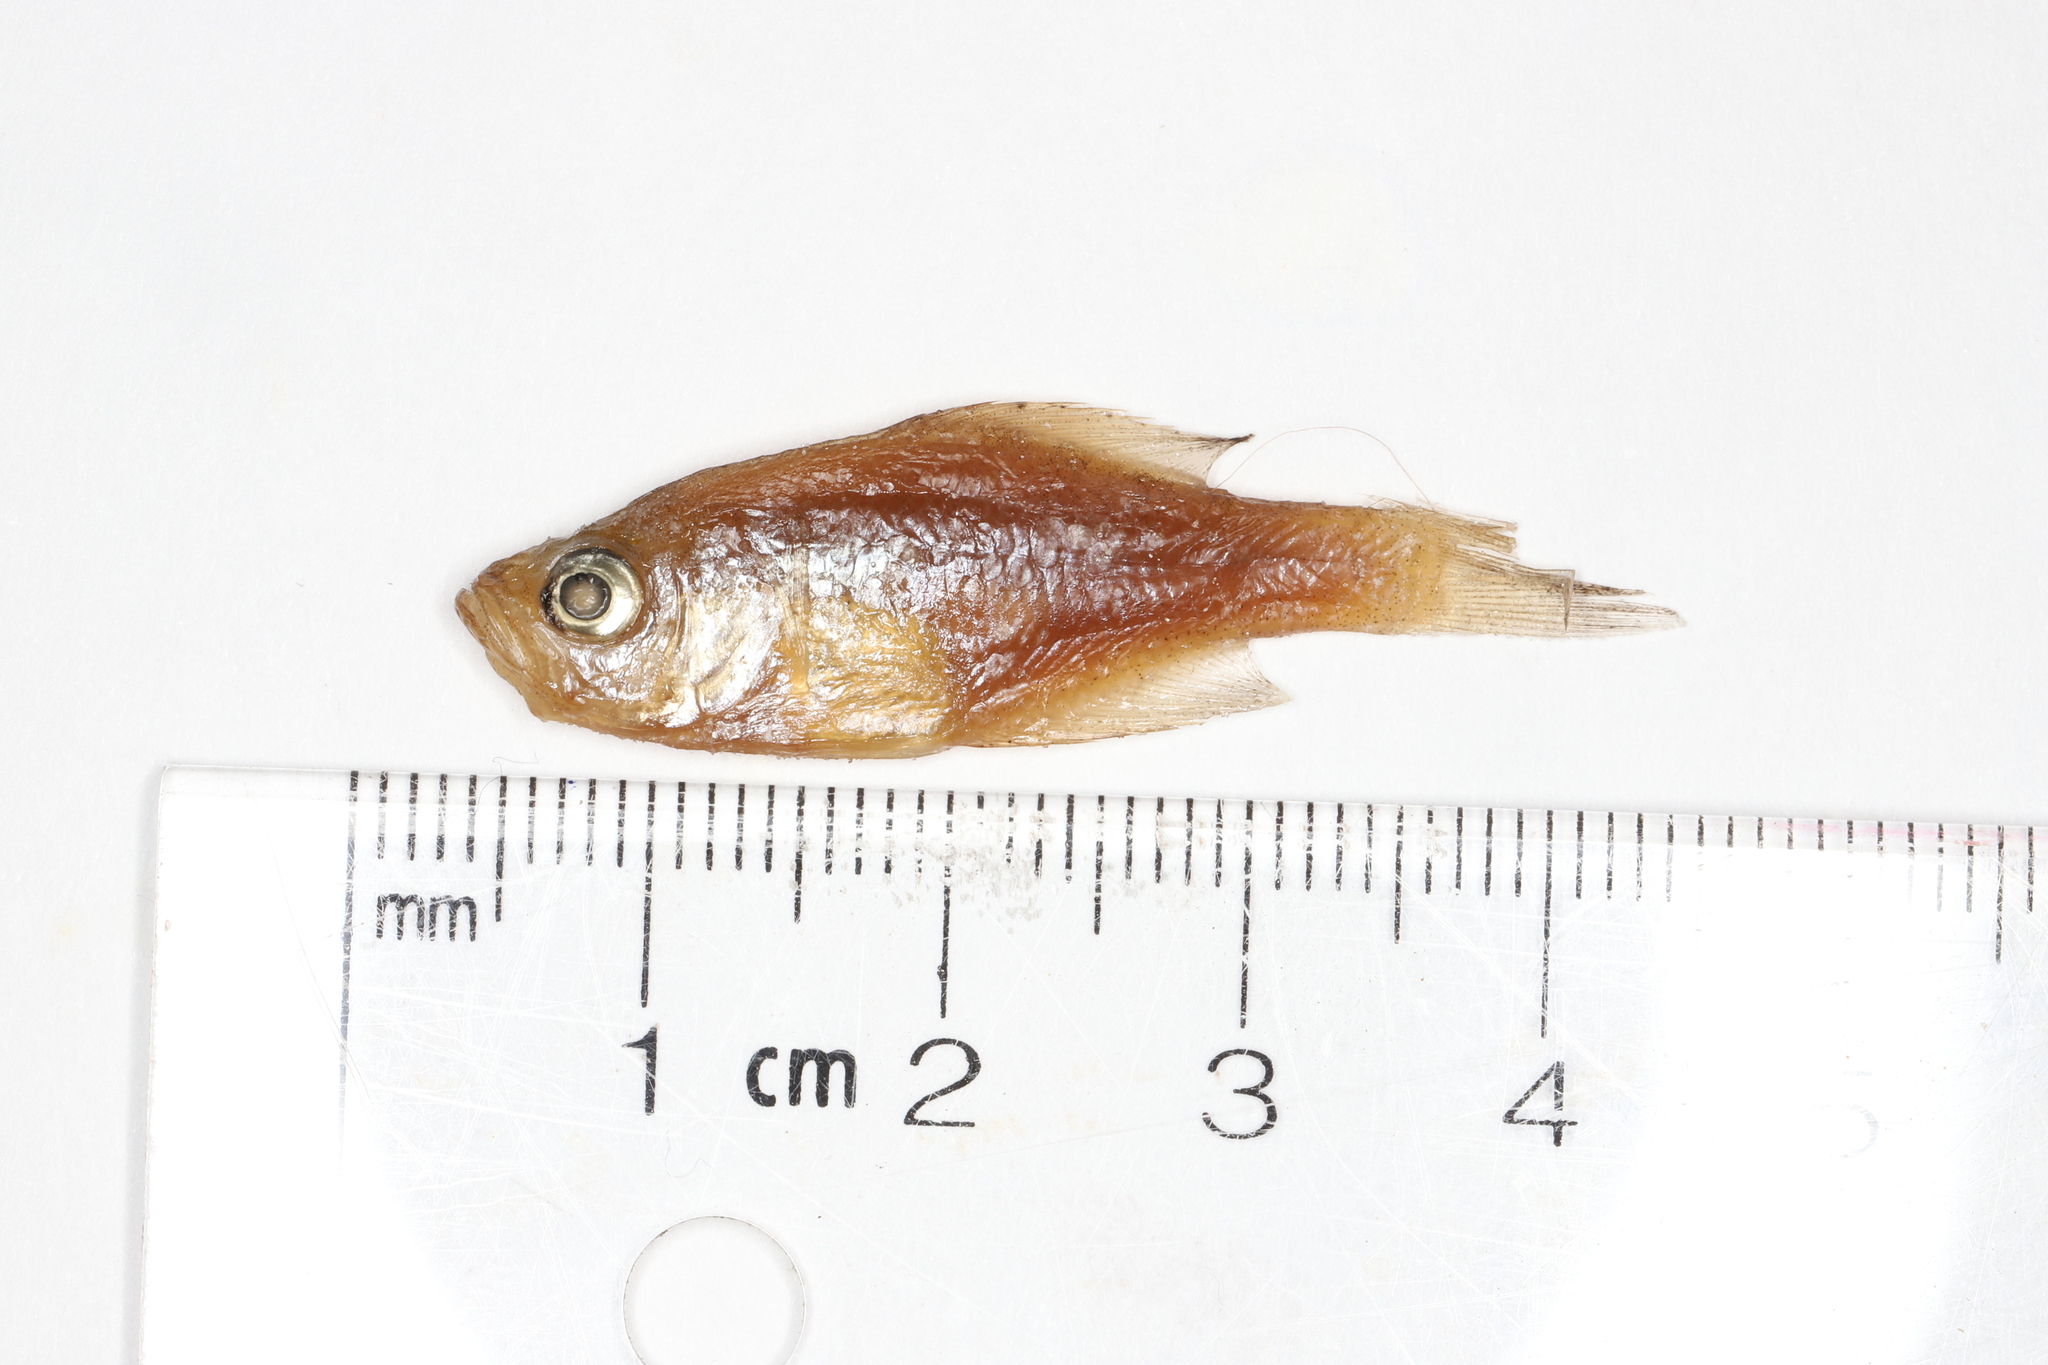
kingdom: Animalia
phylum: Chordata
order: Perciformes
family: Centrarchidae
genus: Pomoxis
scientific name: Pomoxis nigromaculatus
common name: Black crappie
